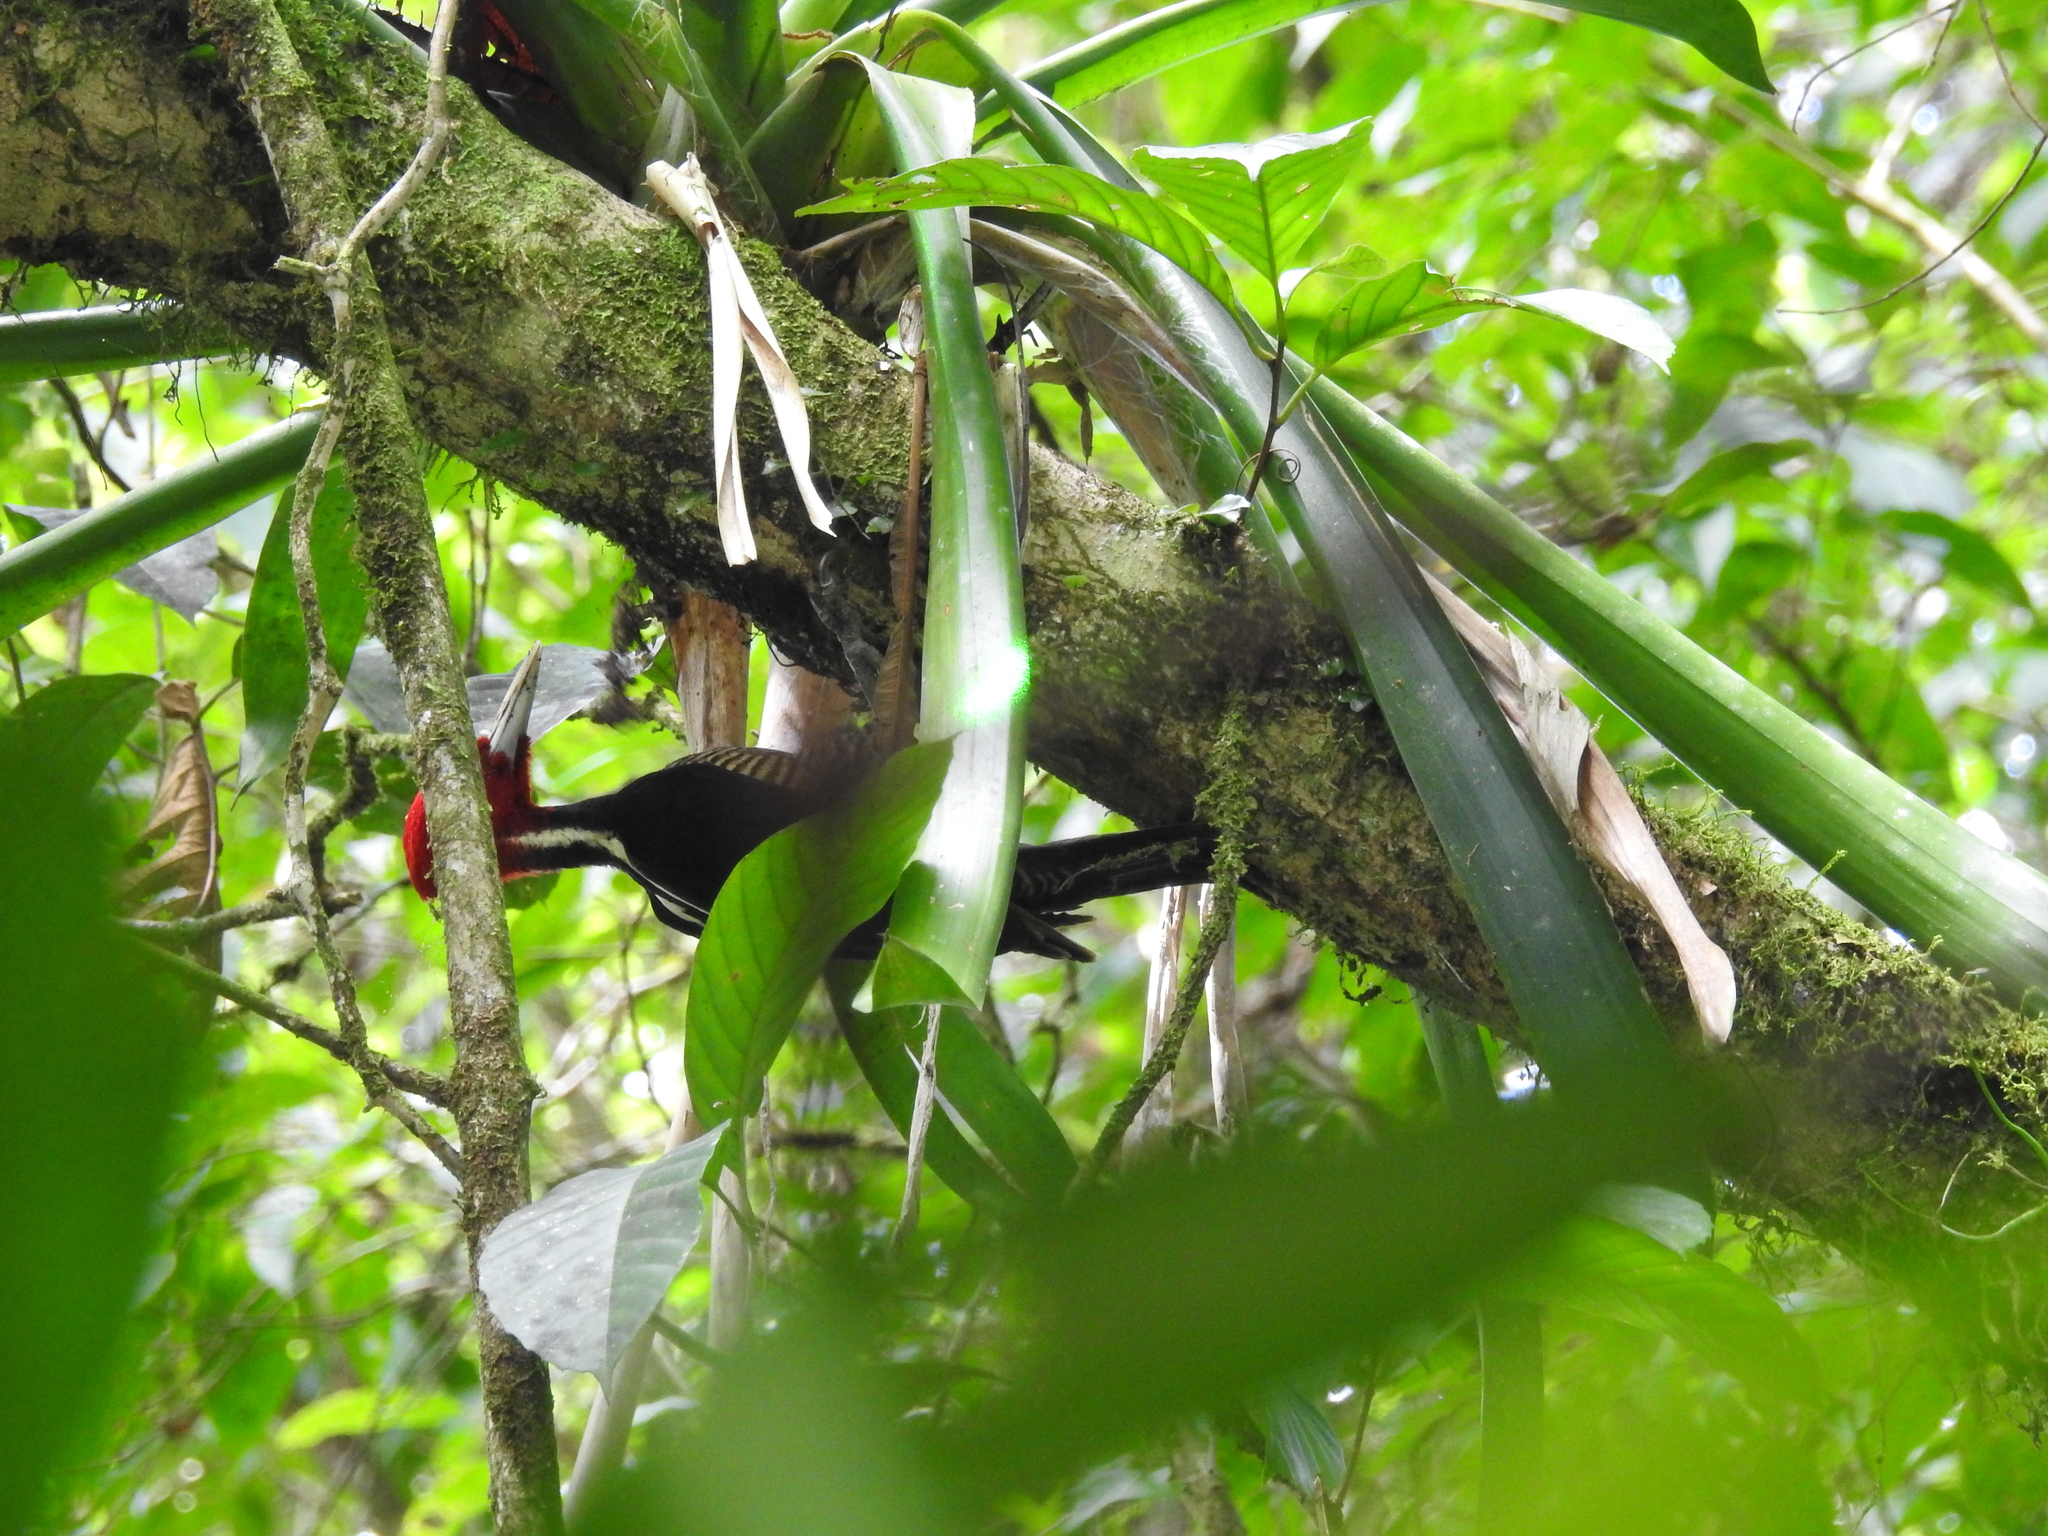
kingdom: Animalia
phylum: Chordata
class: Aves
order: Piciformes
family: Picidae
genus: Campephilus
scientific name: Campephilus guatemalensis
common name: Pale-billed woodpecker
